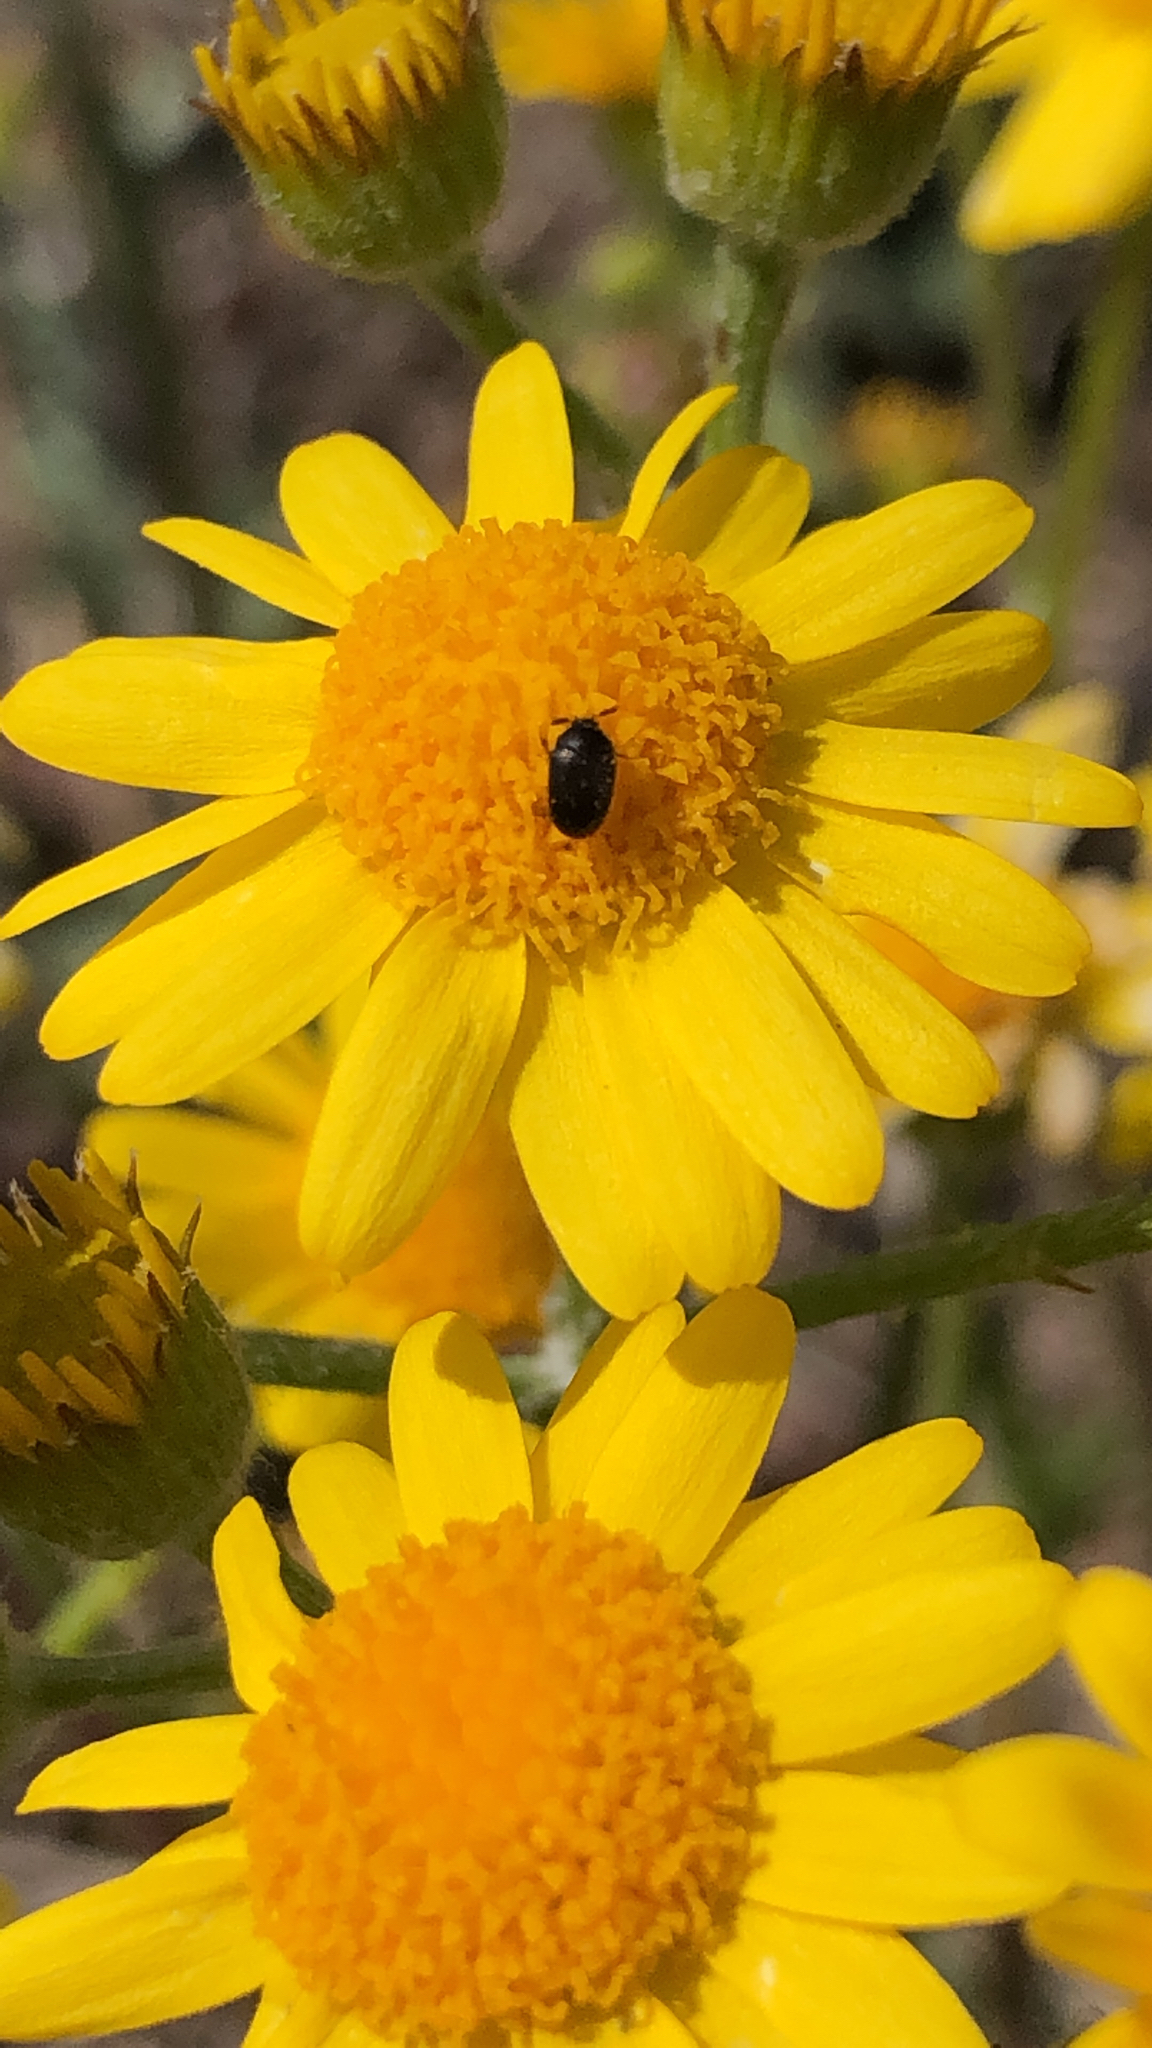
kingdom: Animalia
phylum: Arthropoda
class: Insecta
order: Coleoptera
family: Dermestidae
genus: Cryptorhopalum
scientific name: Cryptorhopalum
